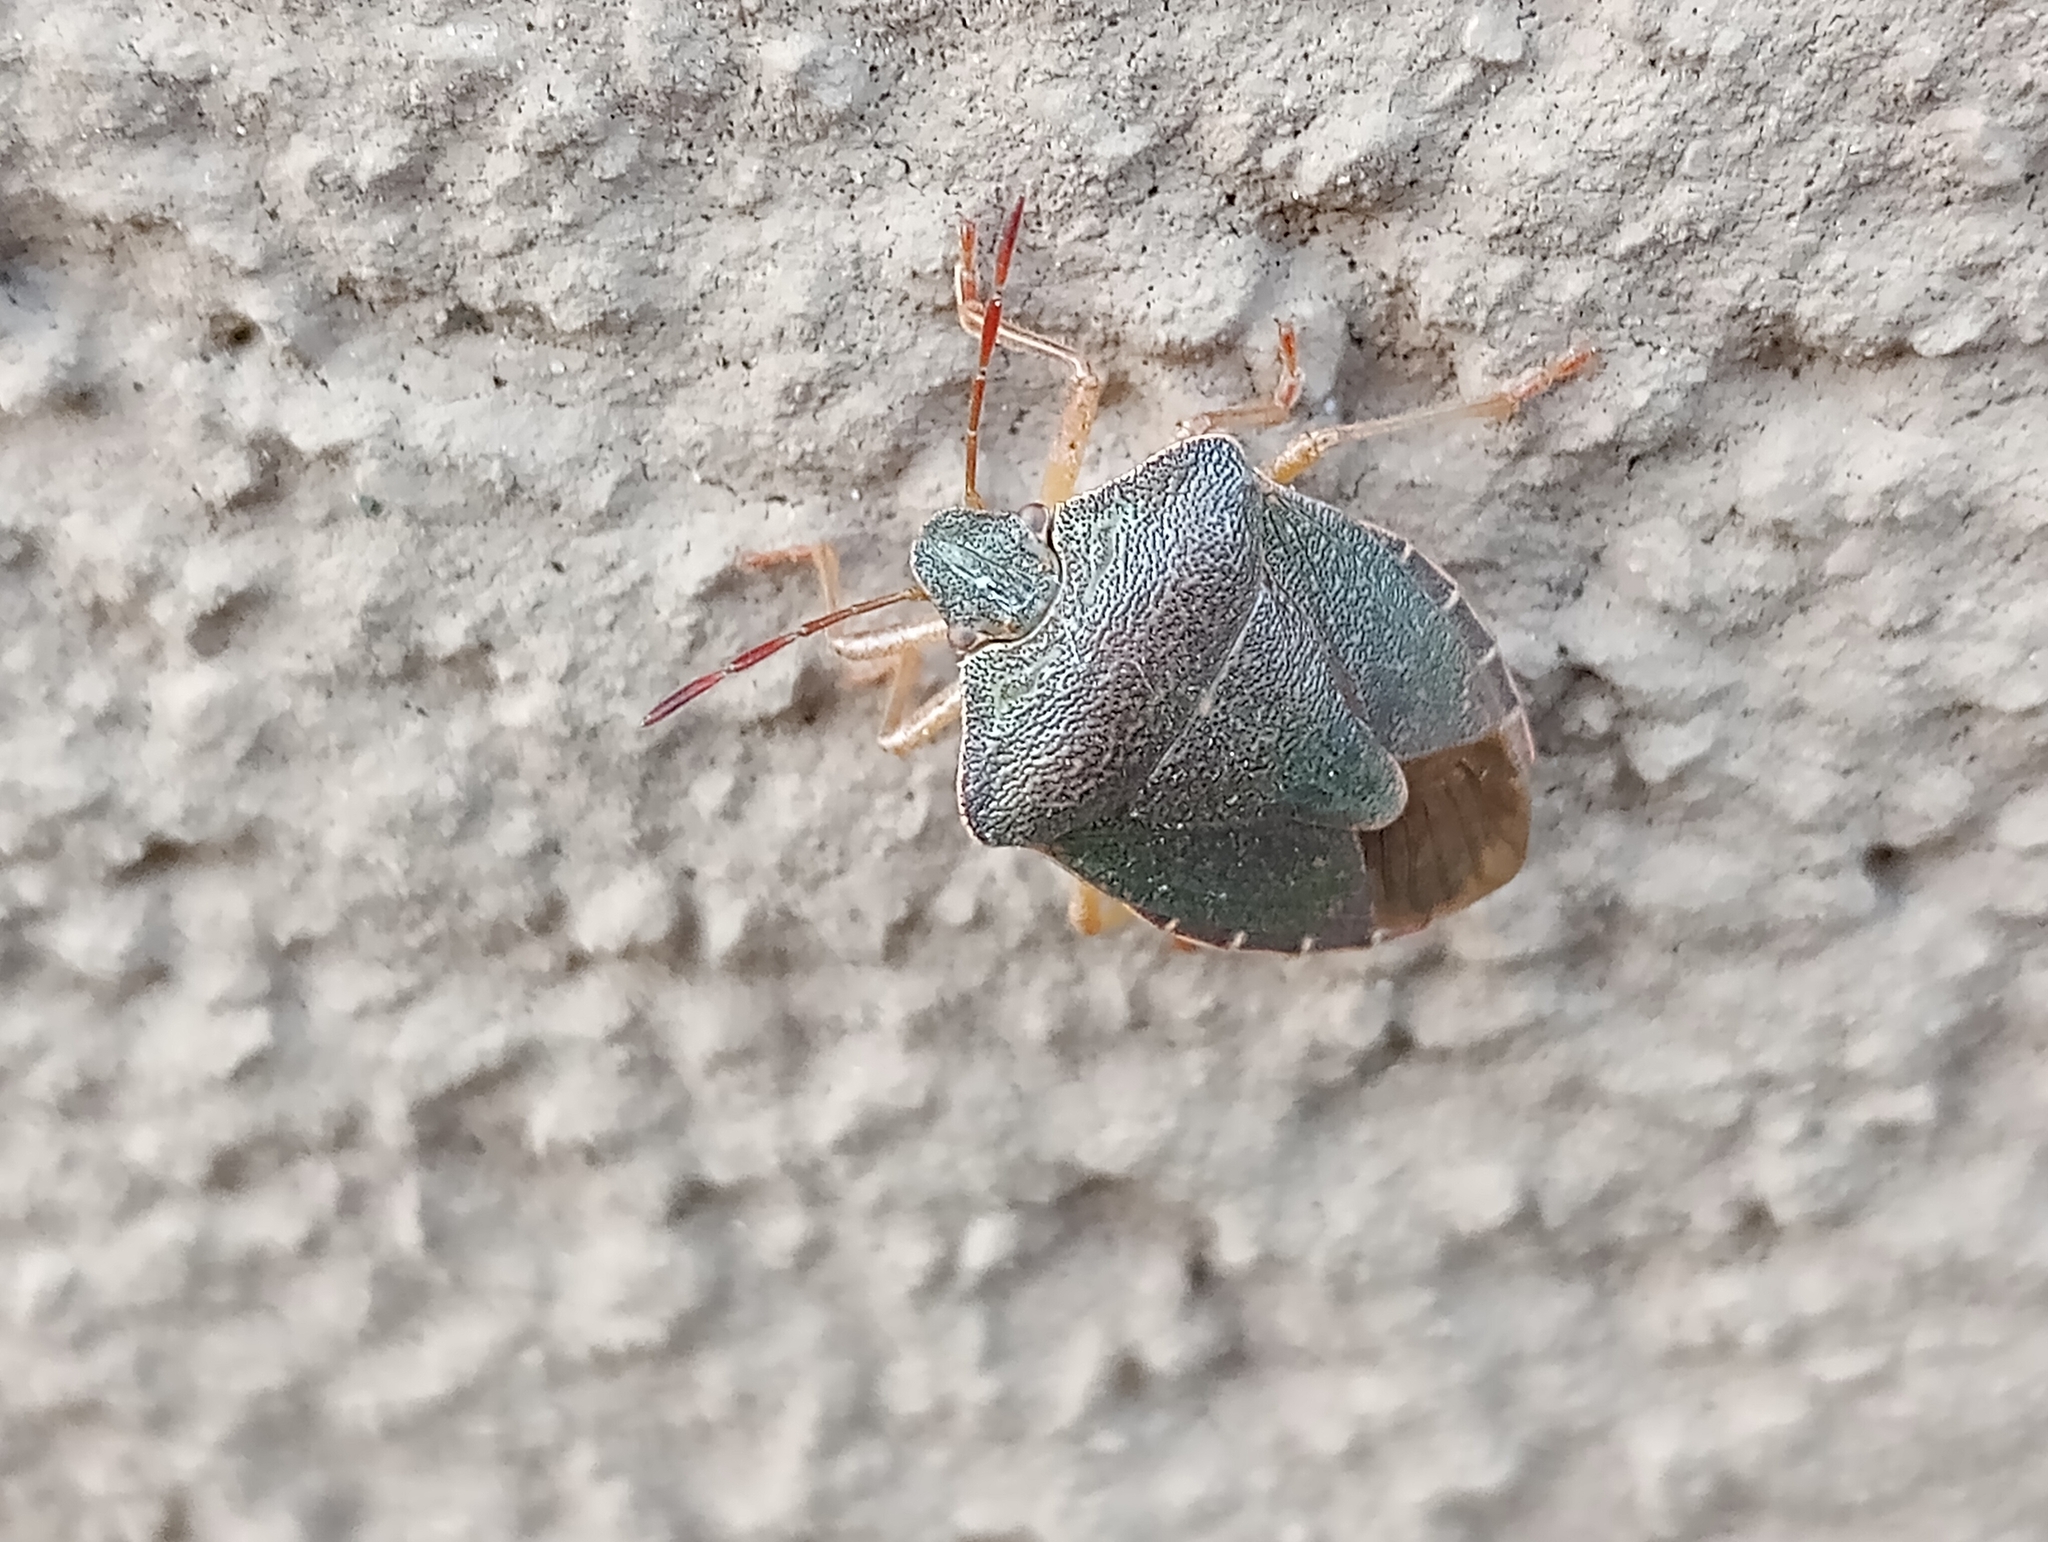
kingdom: Animalia
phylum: Arthropoda
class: Insecta
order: Hemiptera
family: Pentatomidae
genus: Palomena
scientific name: Palomena prasina
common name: Green shieldbug
